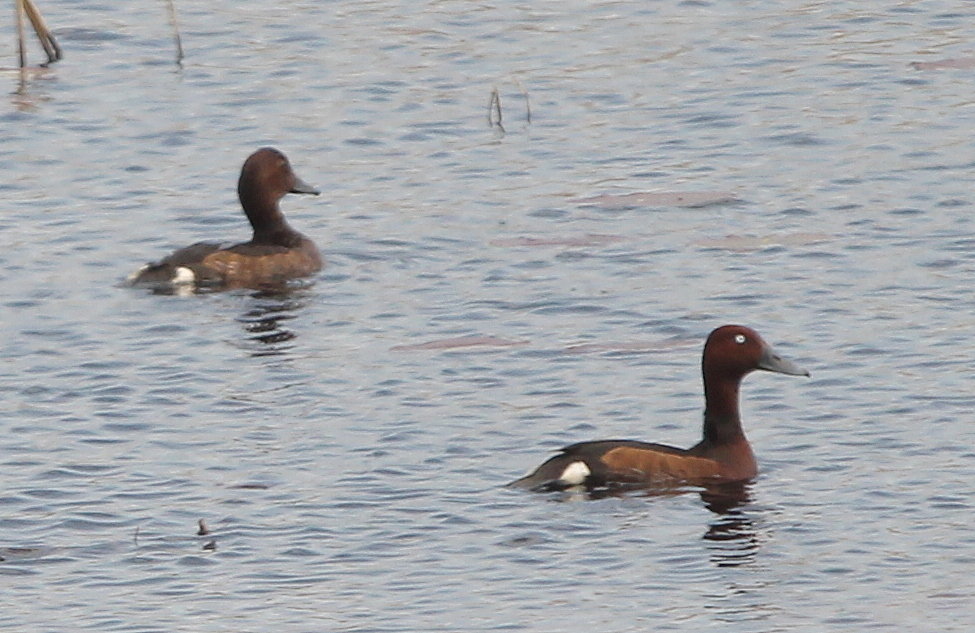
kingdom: Animalia
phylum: Chordata
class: Aves
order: Anseriformes
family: Anatidae
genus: Aythya
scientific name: Aythya nyroca
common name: Ferruginous duck
